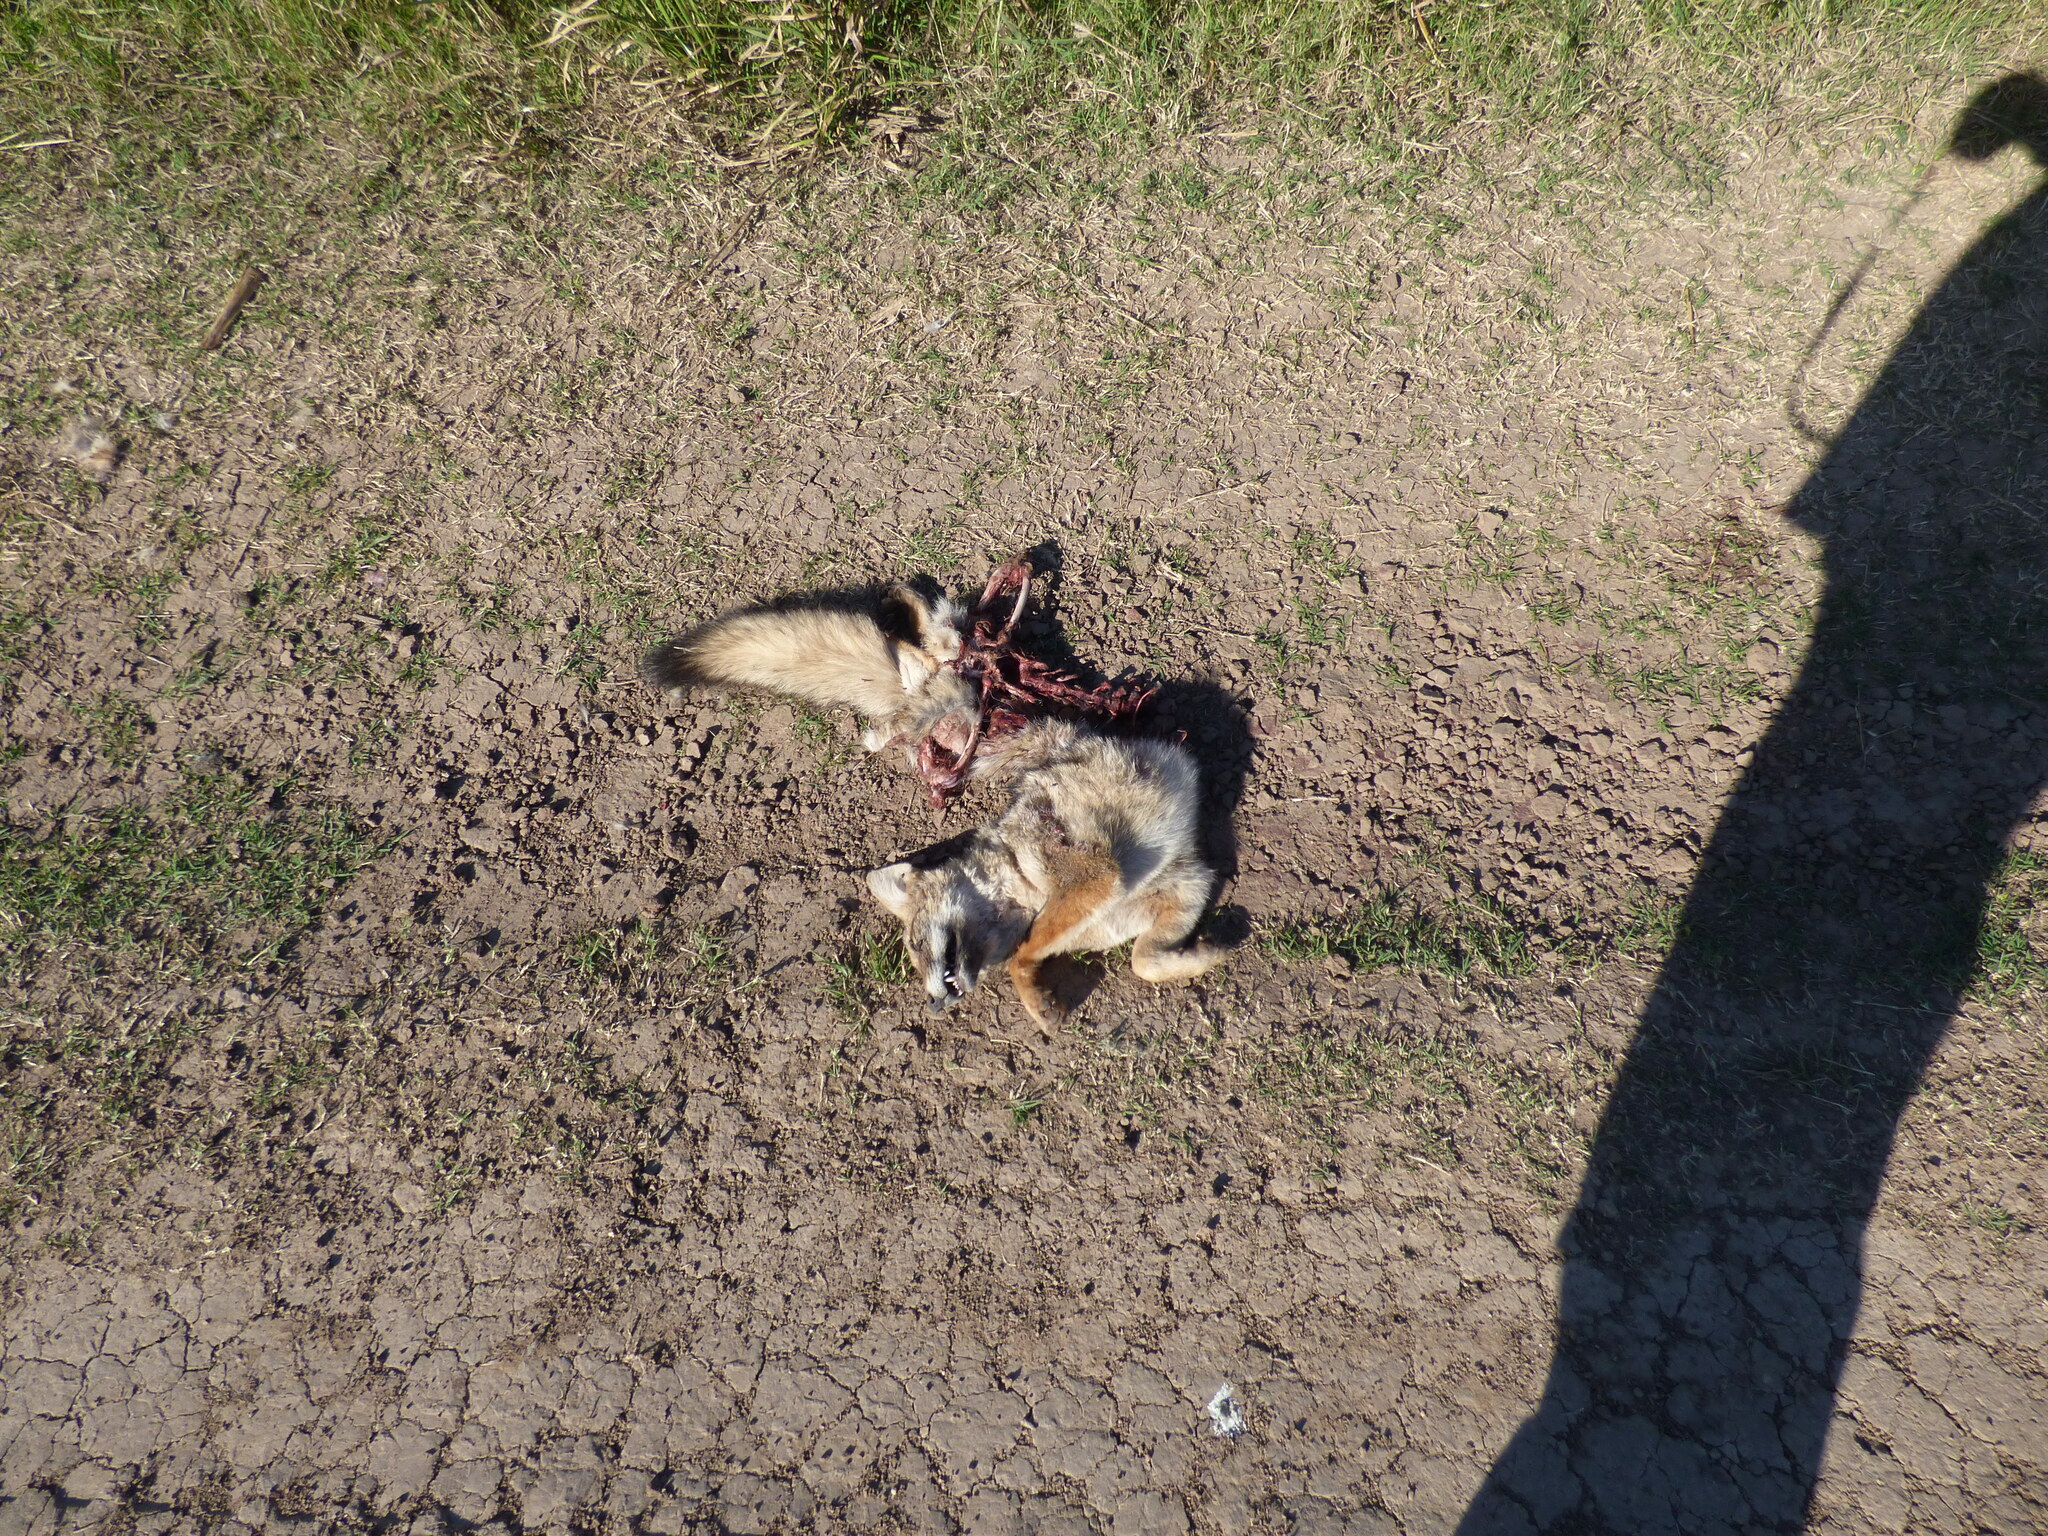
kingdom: Animalia
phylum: Chordata
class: Mammalia
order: Carnivora
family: Canidae
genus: Lycalopex
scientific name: Lycalopex gymnocercus
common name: Pampas fox
